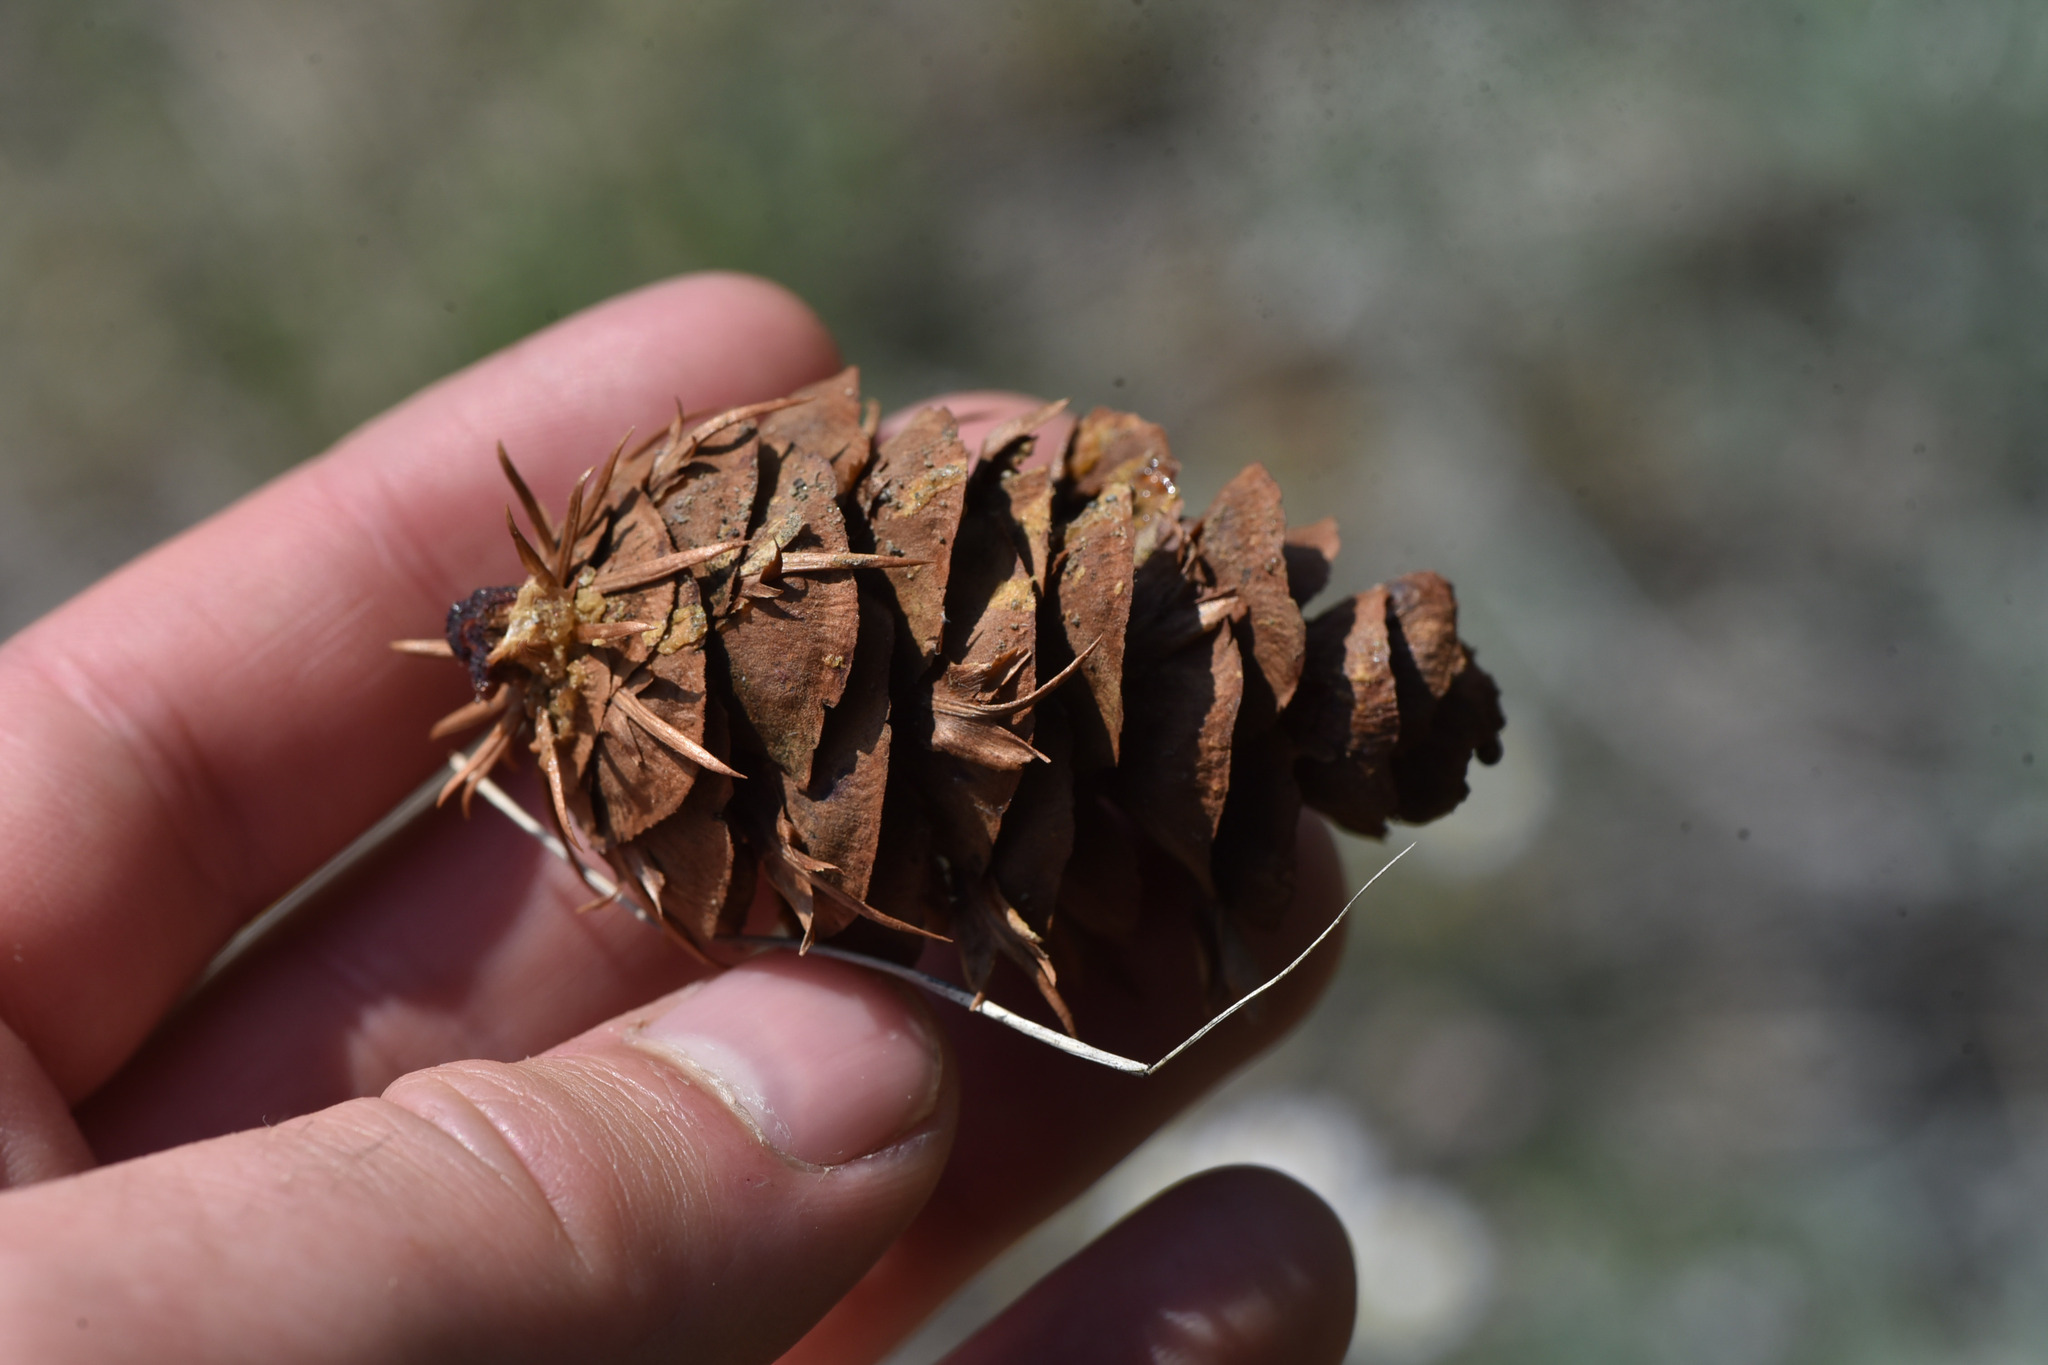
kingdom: Plantae
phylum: Tracheophyta
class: Pinopsida
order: Pinales
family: Pinaceae
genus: Pseudotsuga
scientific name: Pseudotsuga menziesii
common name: Douglas fir
